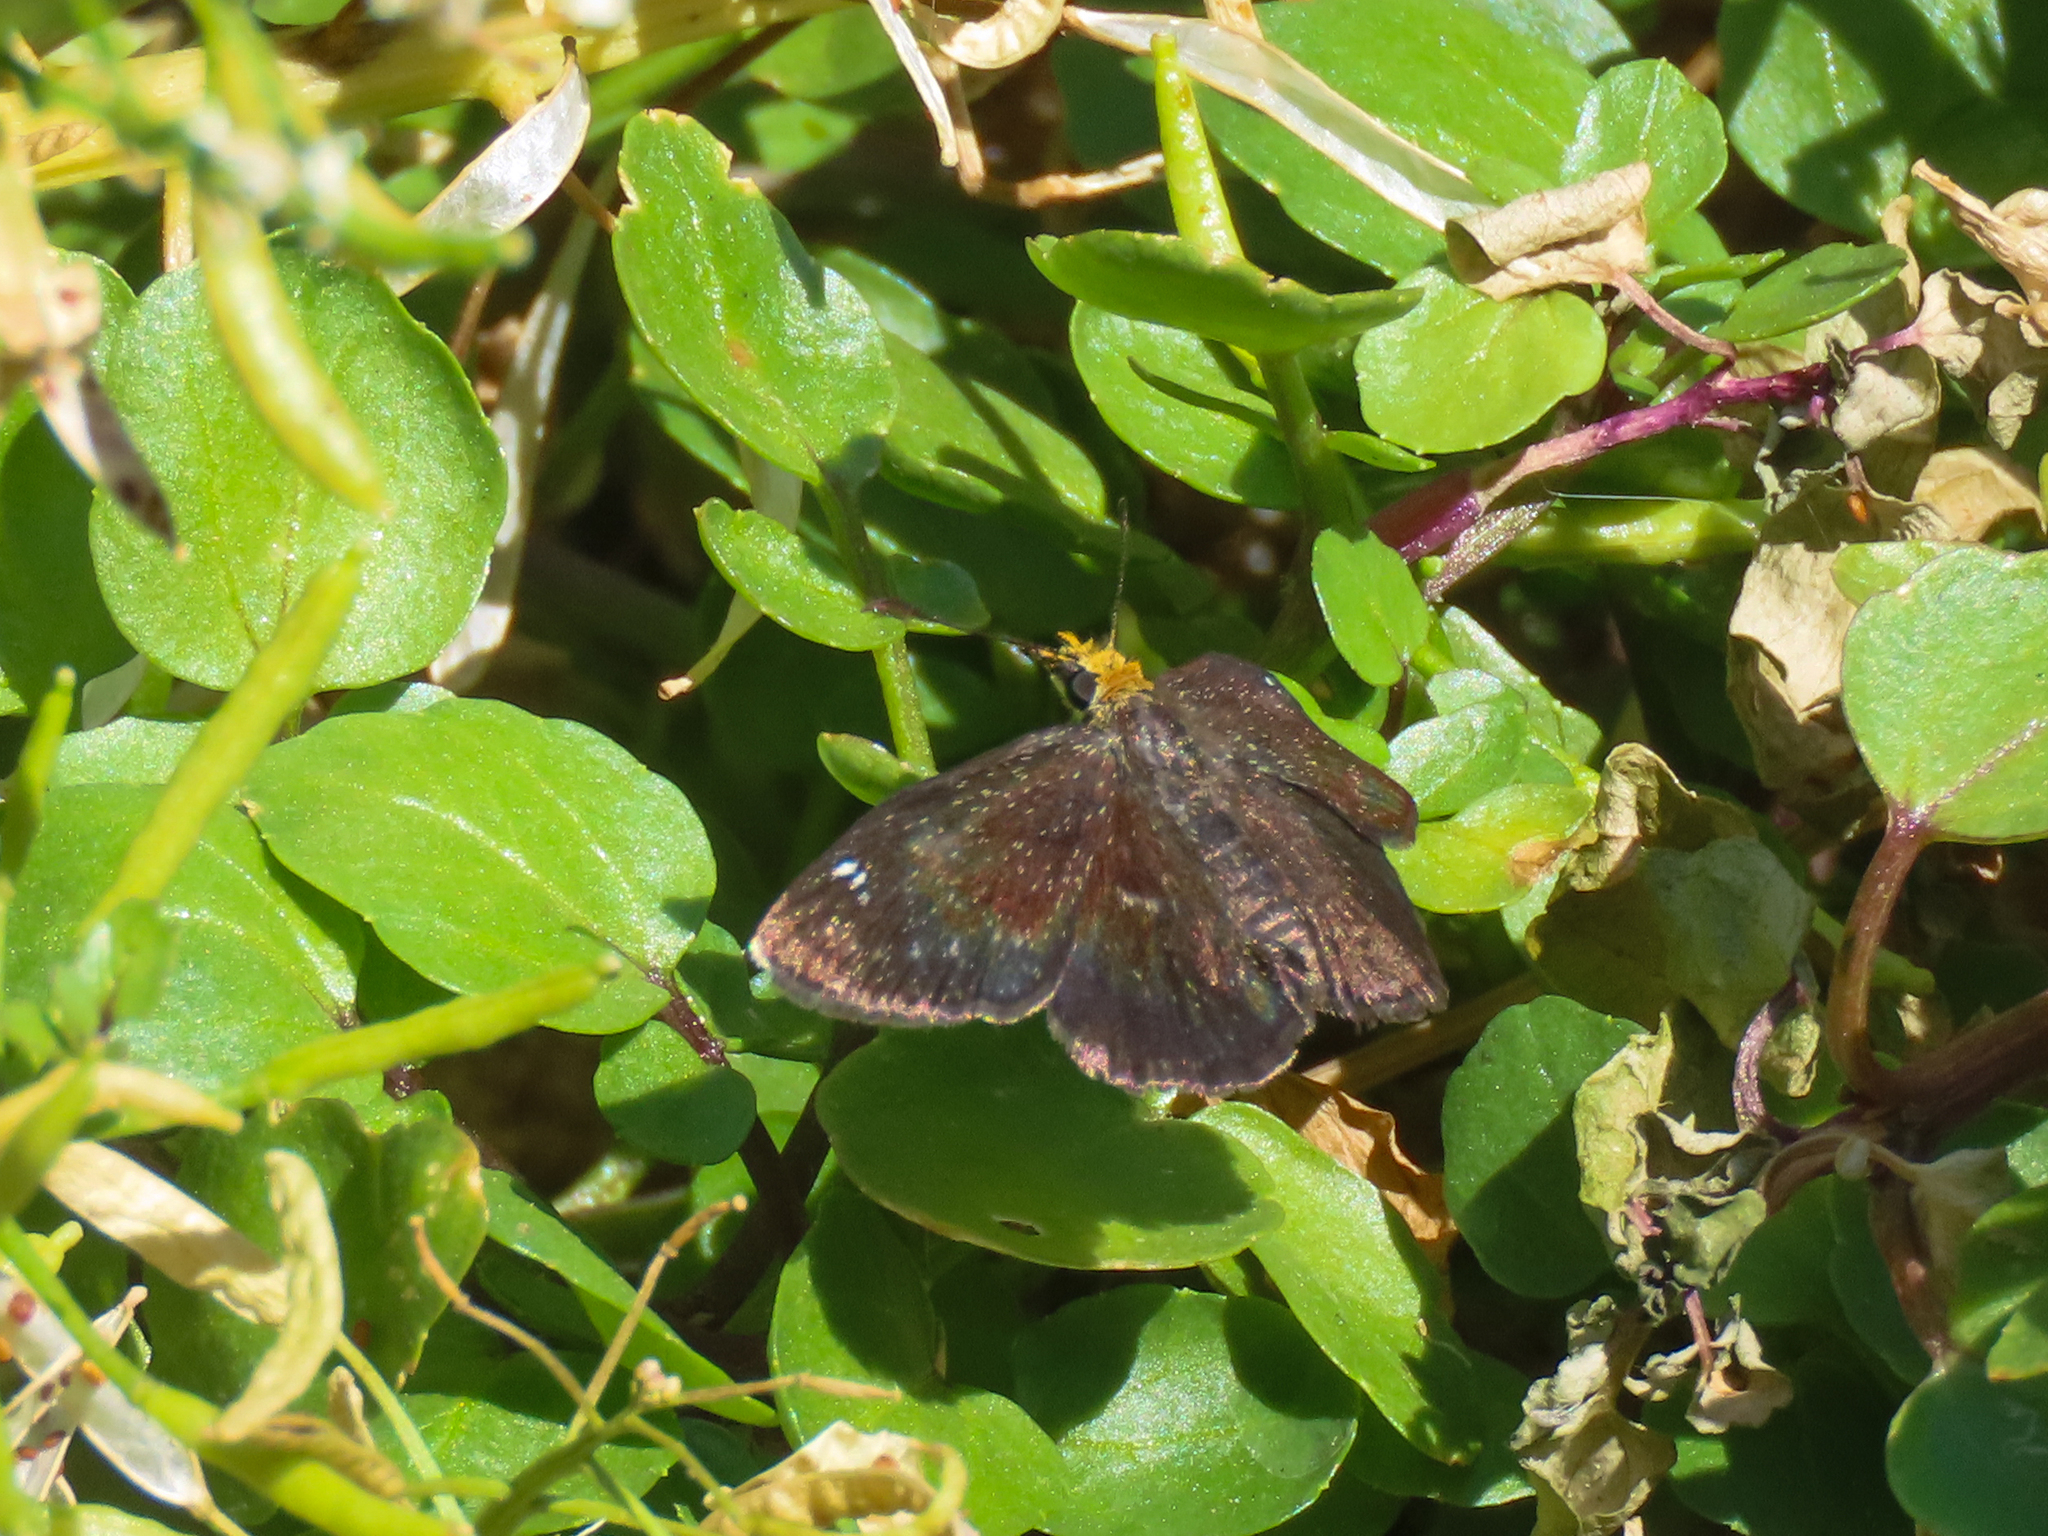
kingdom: Animalia
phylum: Arthropoda
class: Insecta
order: Lepidoptera
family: Hesperiidae
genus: Staphylus
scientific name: Staphylus ceos
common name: Golden-headed scallopwing
